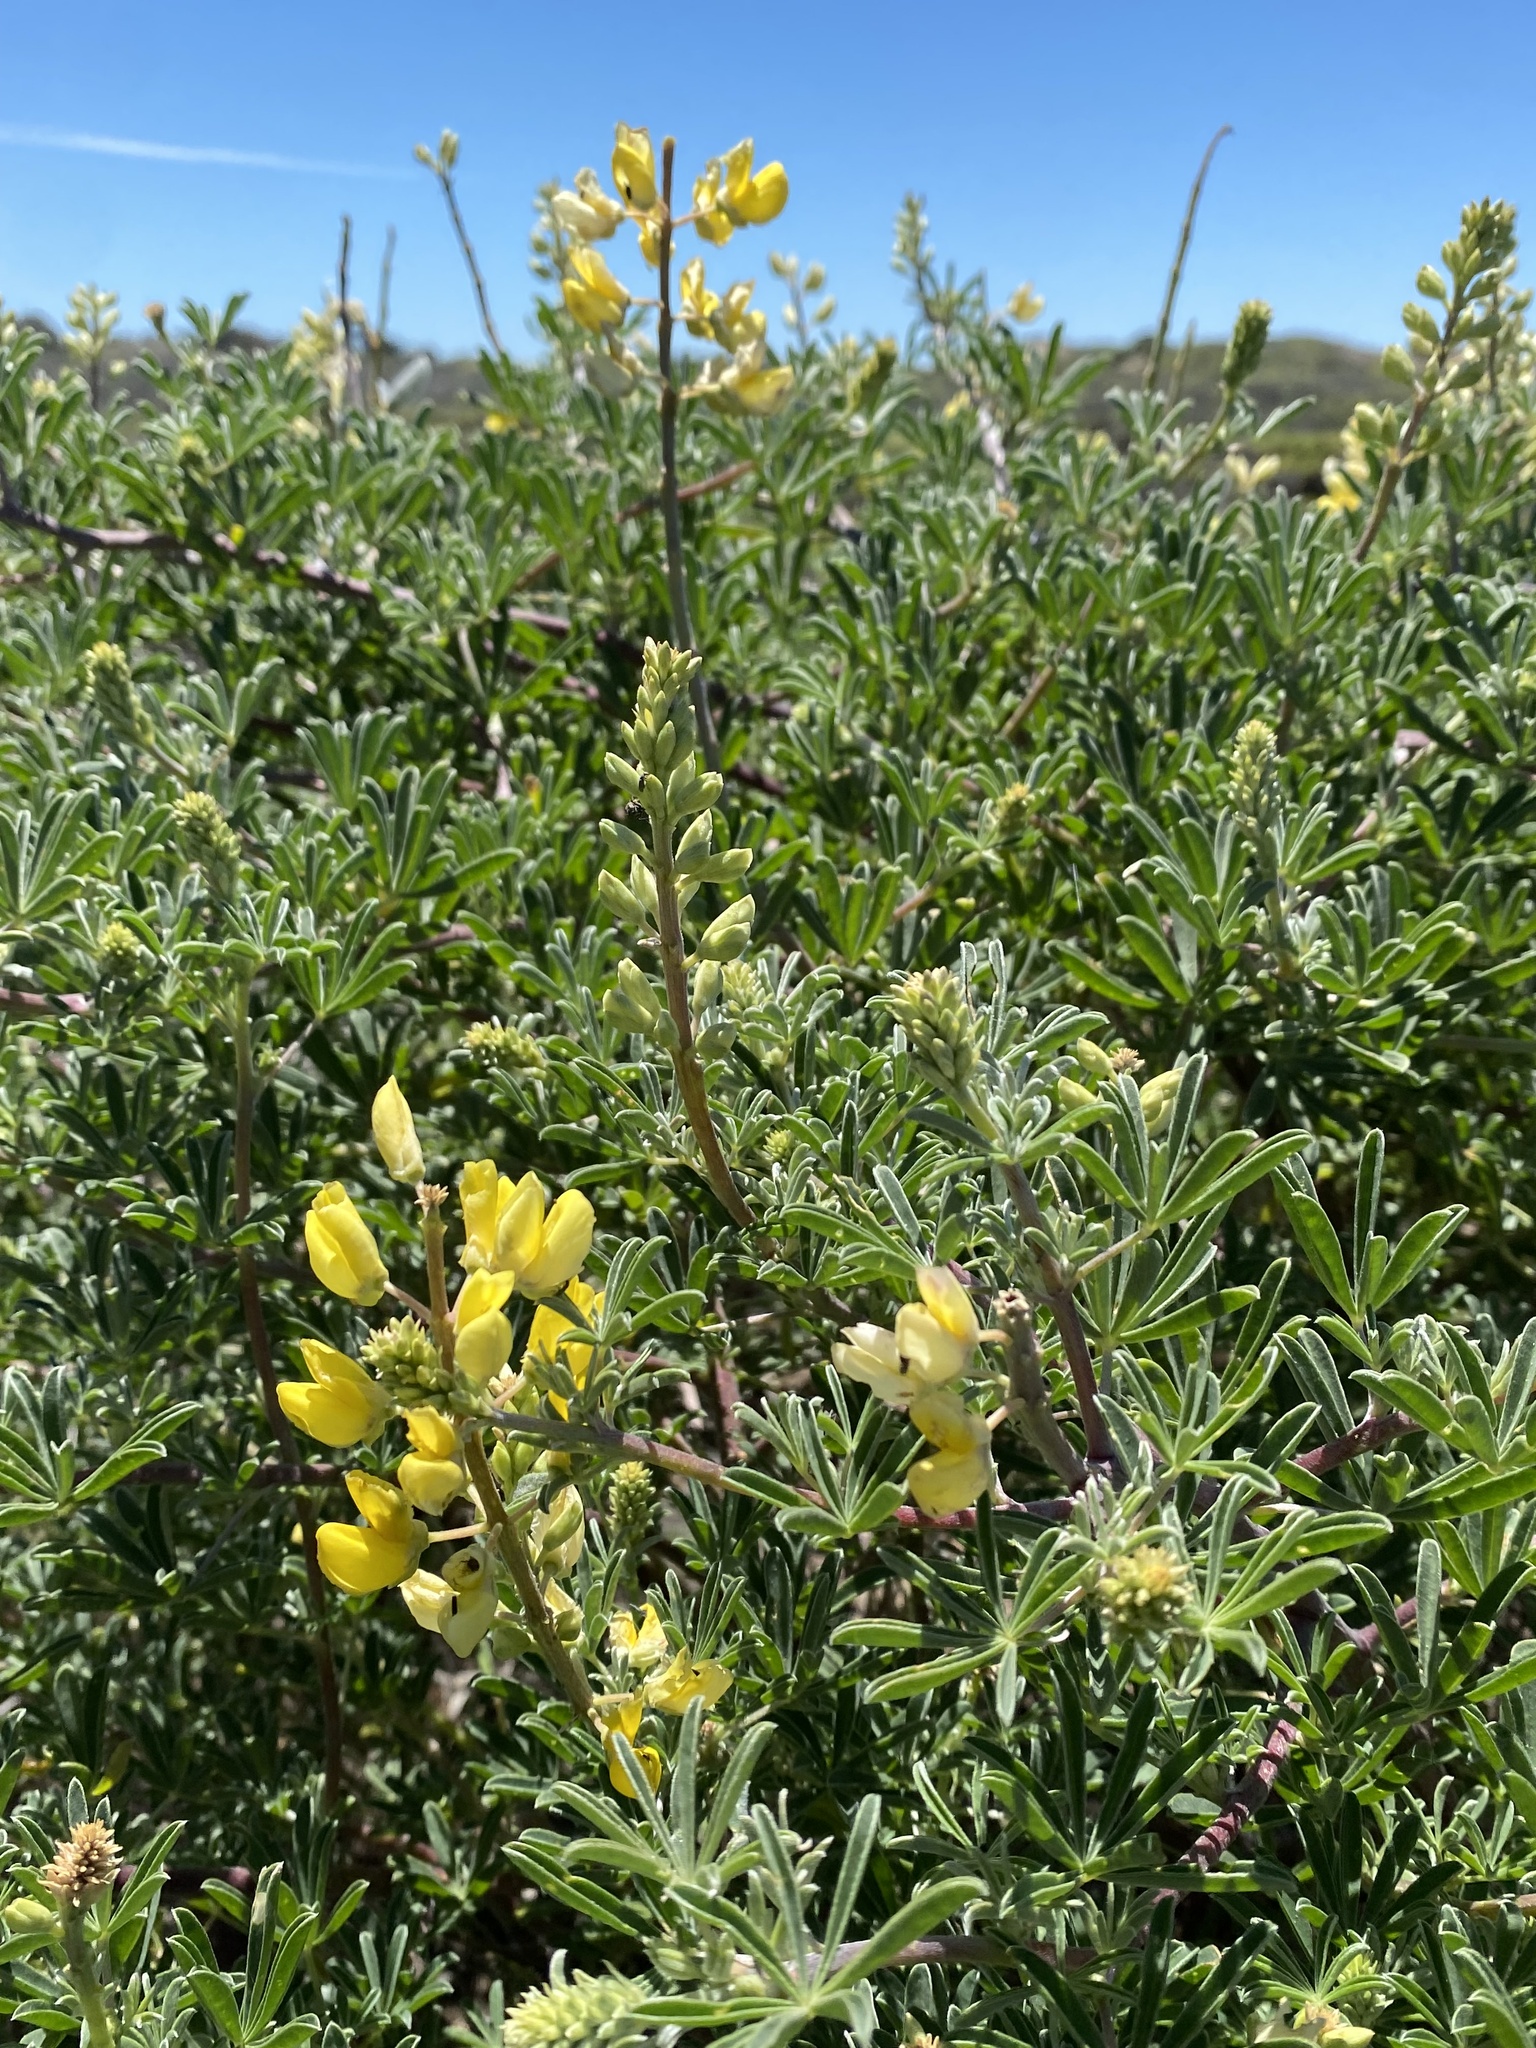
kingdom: Plantae
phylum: Tracheophyta
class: Magnoliopsida
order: Fabales
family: Fabaceae
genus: Lupinus
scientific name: Lupinus arboreus
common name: Yellow bush lupine
